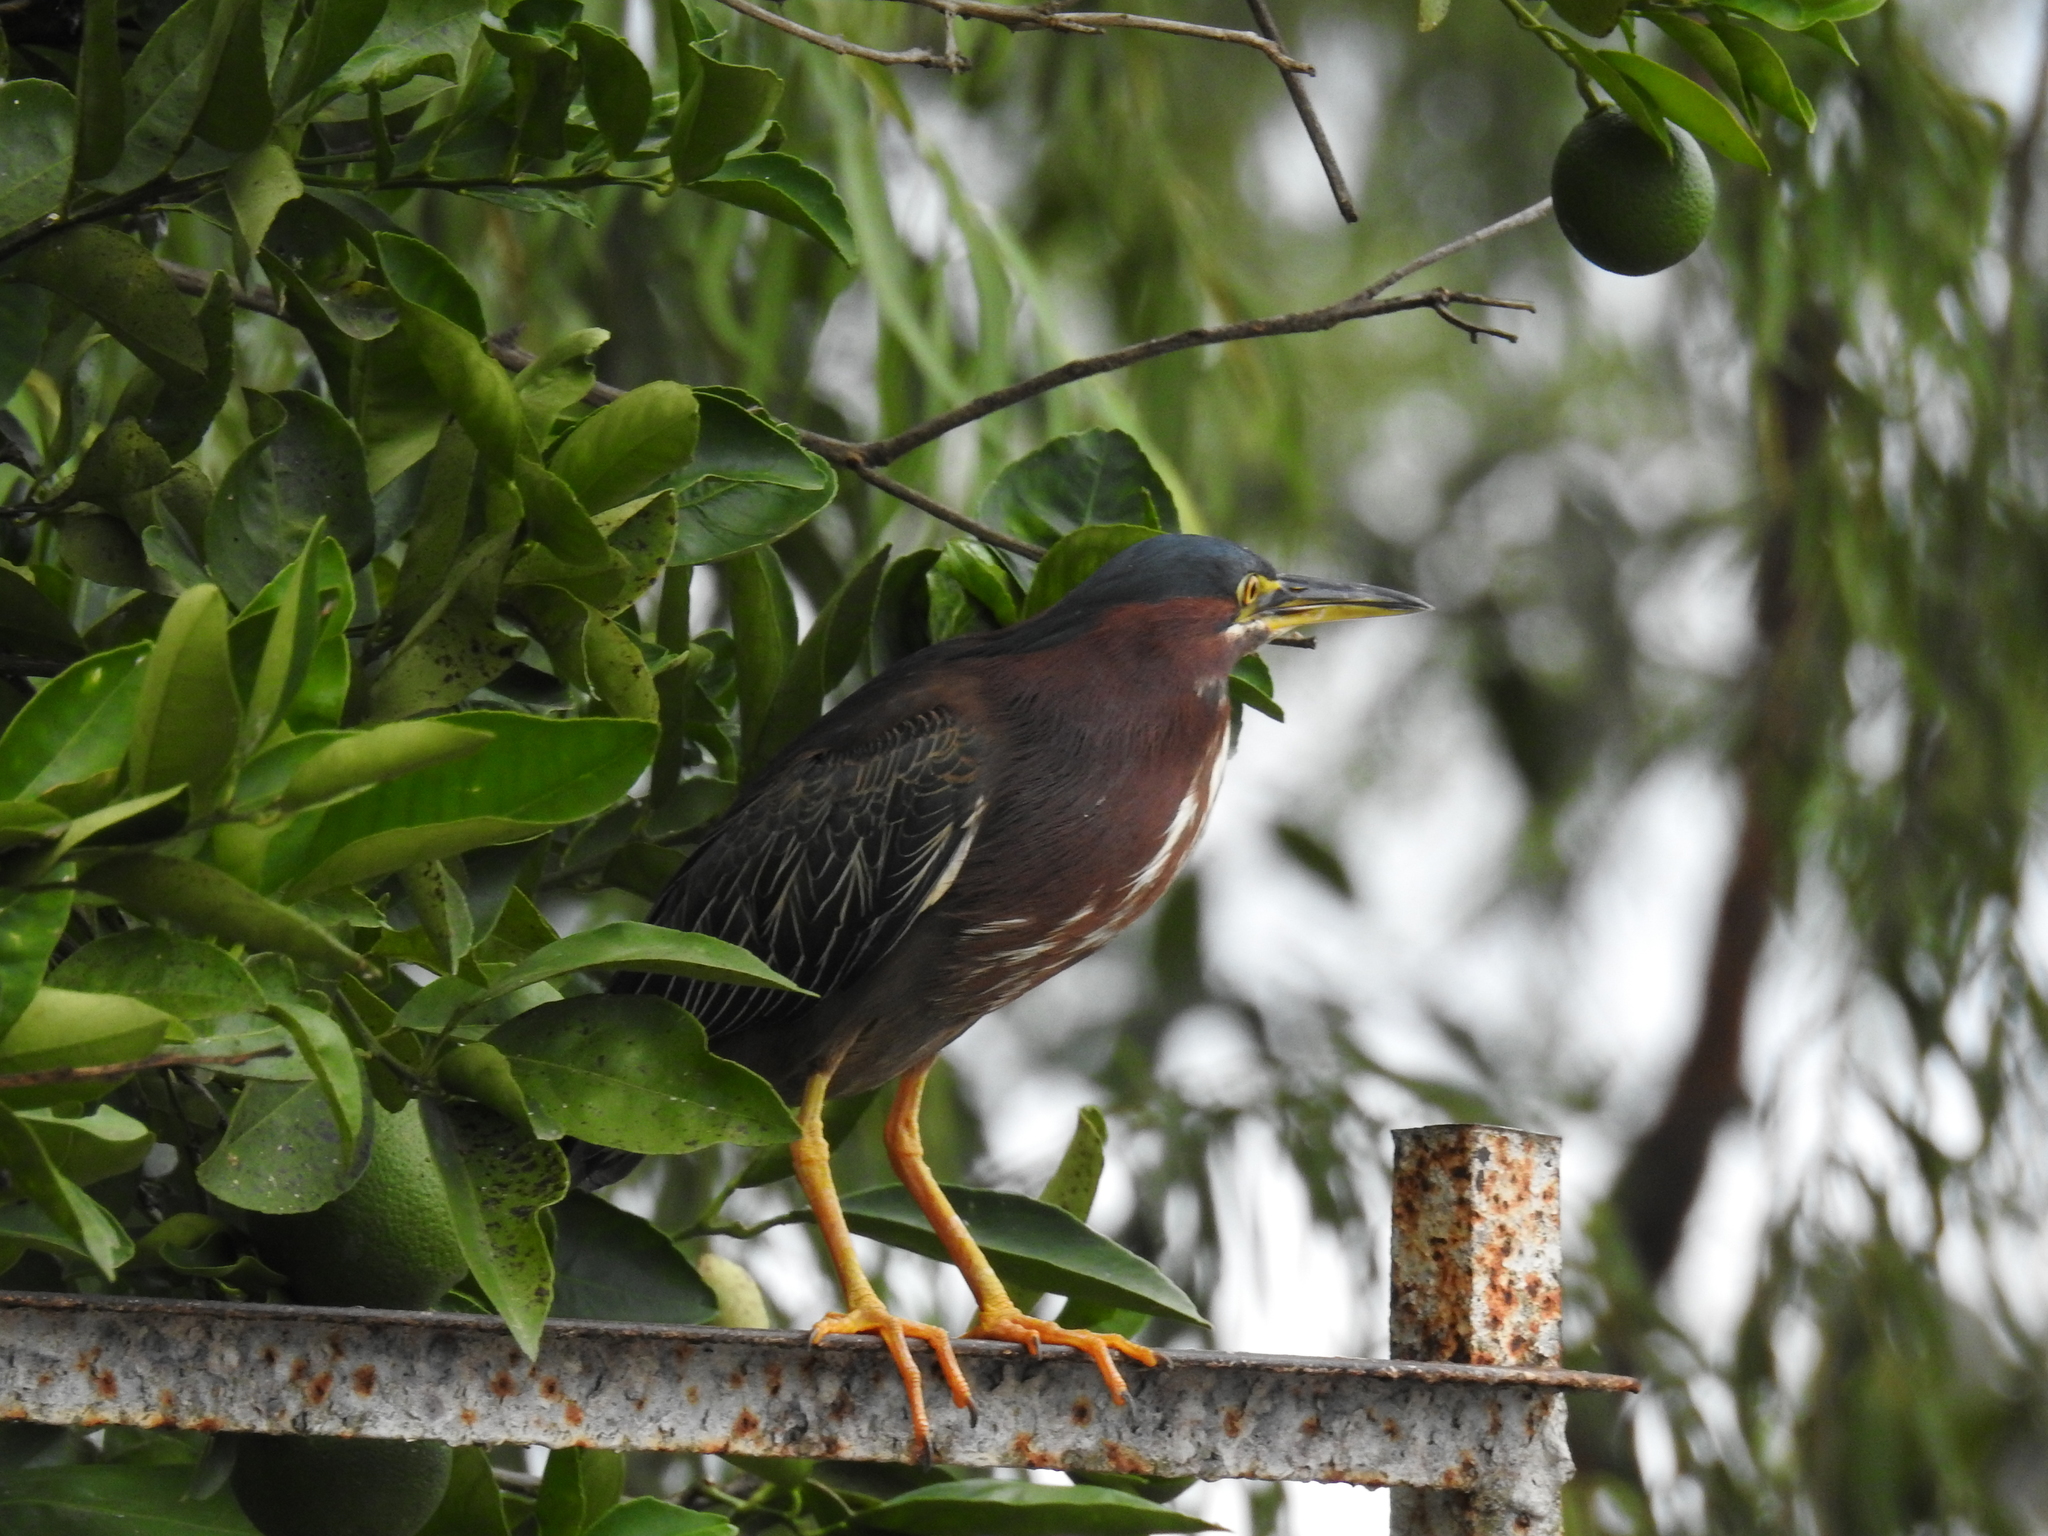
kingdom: Animalia
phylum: Chordata
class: Aves
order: Pelecaniformes
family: Ardeidae
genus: Butorides
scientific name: Butorides virescens
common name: Green heron
